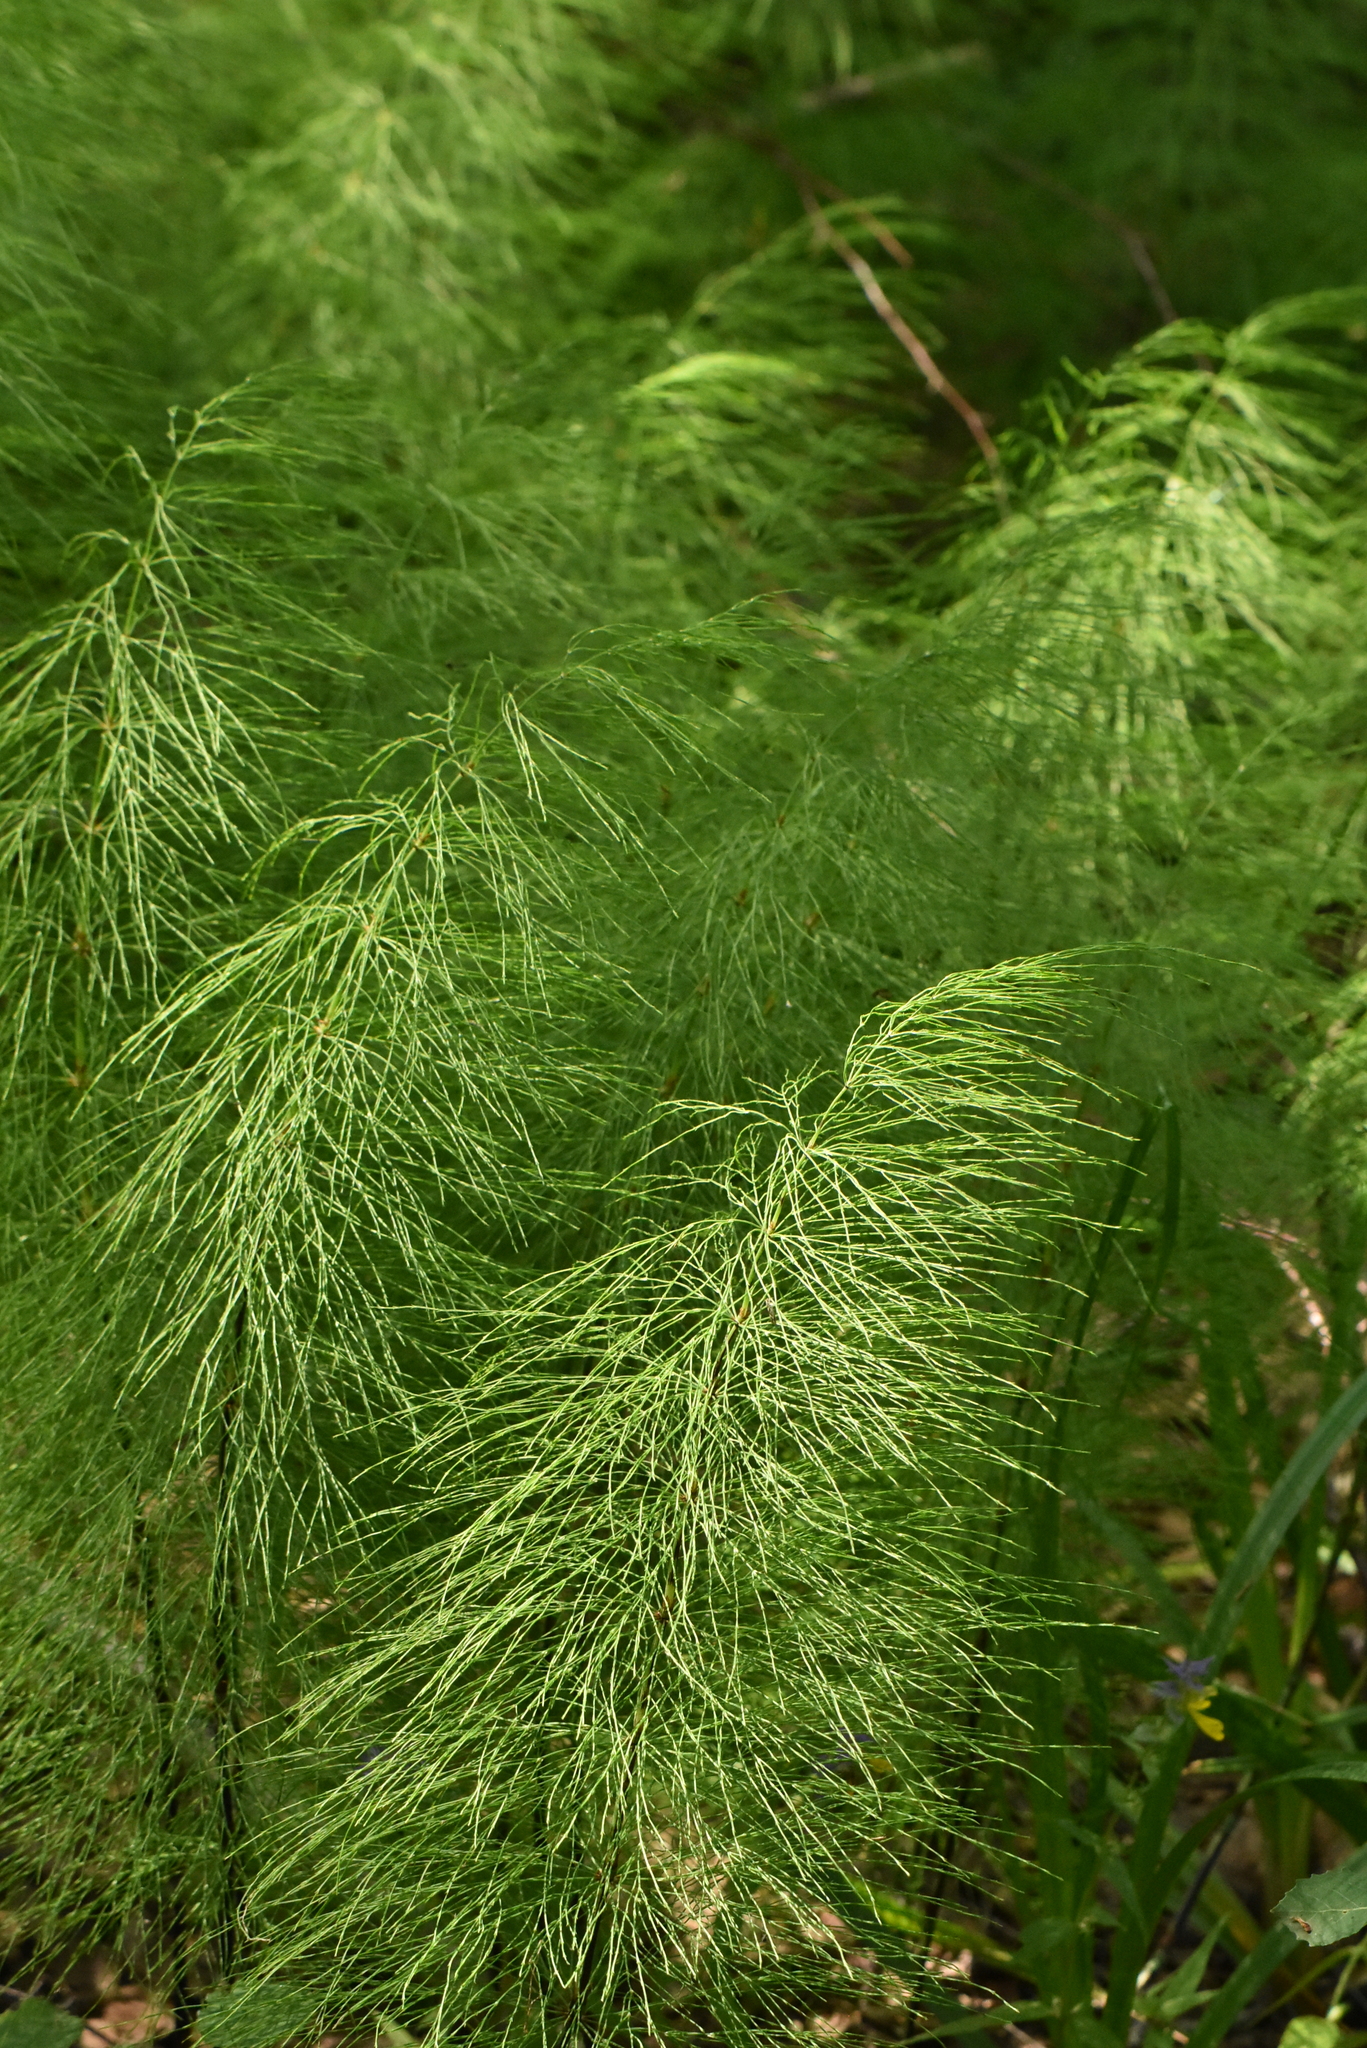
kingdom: Plantae
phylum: Tracheophyta
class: Polypodiopsida
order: Equisetales
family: Equisetaceae
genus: Equisetum
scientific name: Equisetum sylvaticum
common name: Wood horsetail
